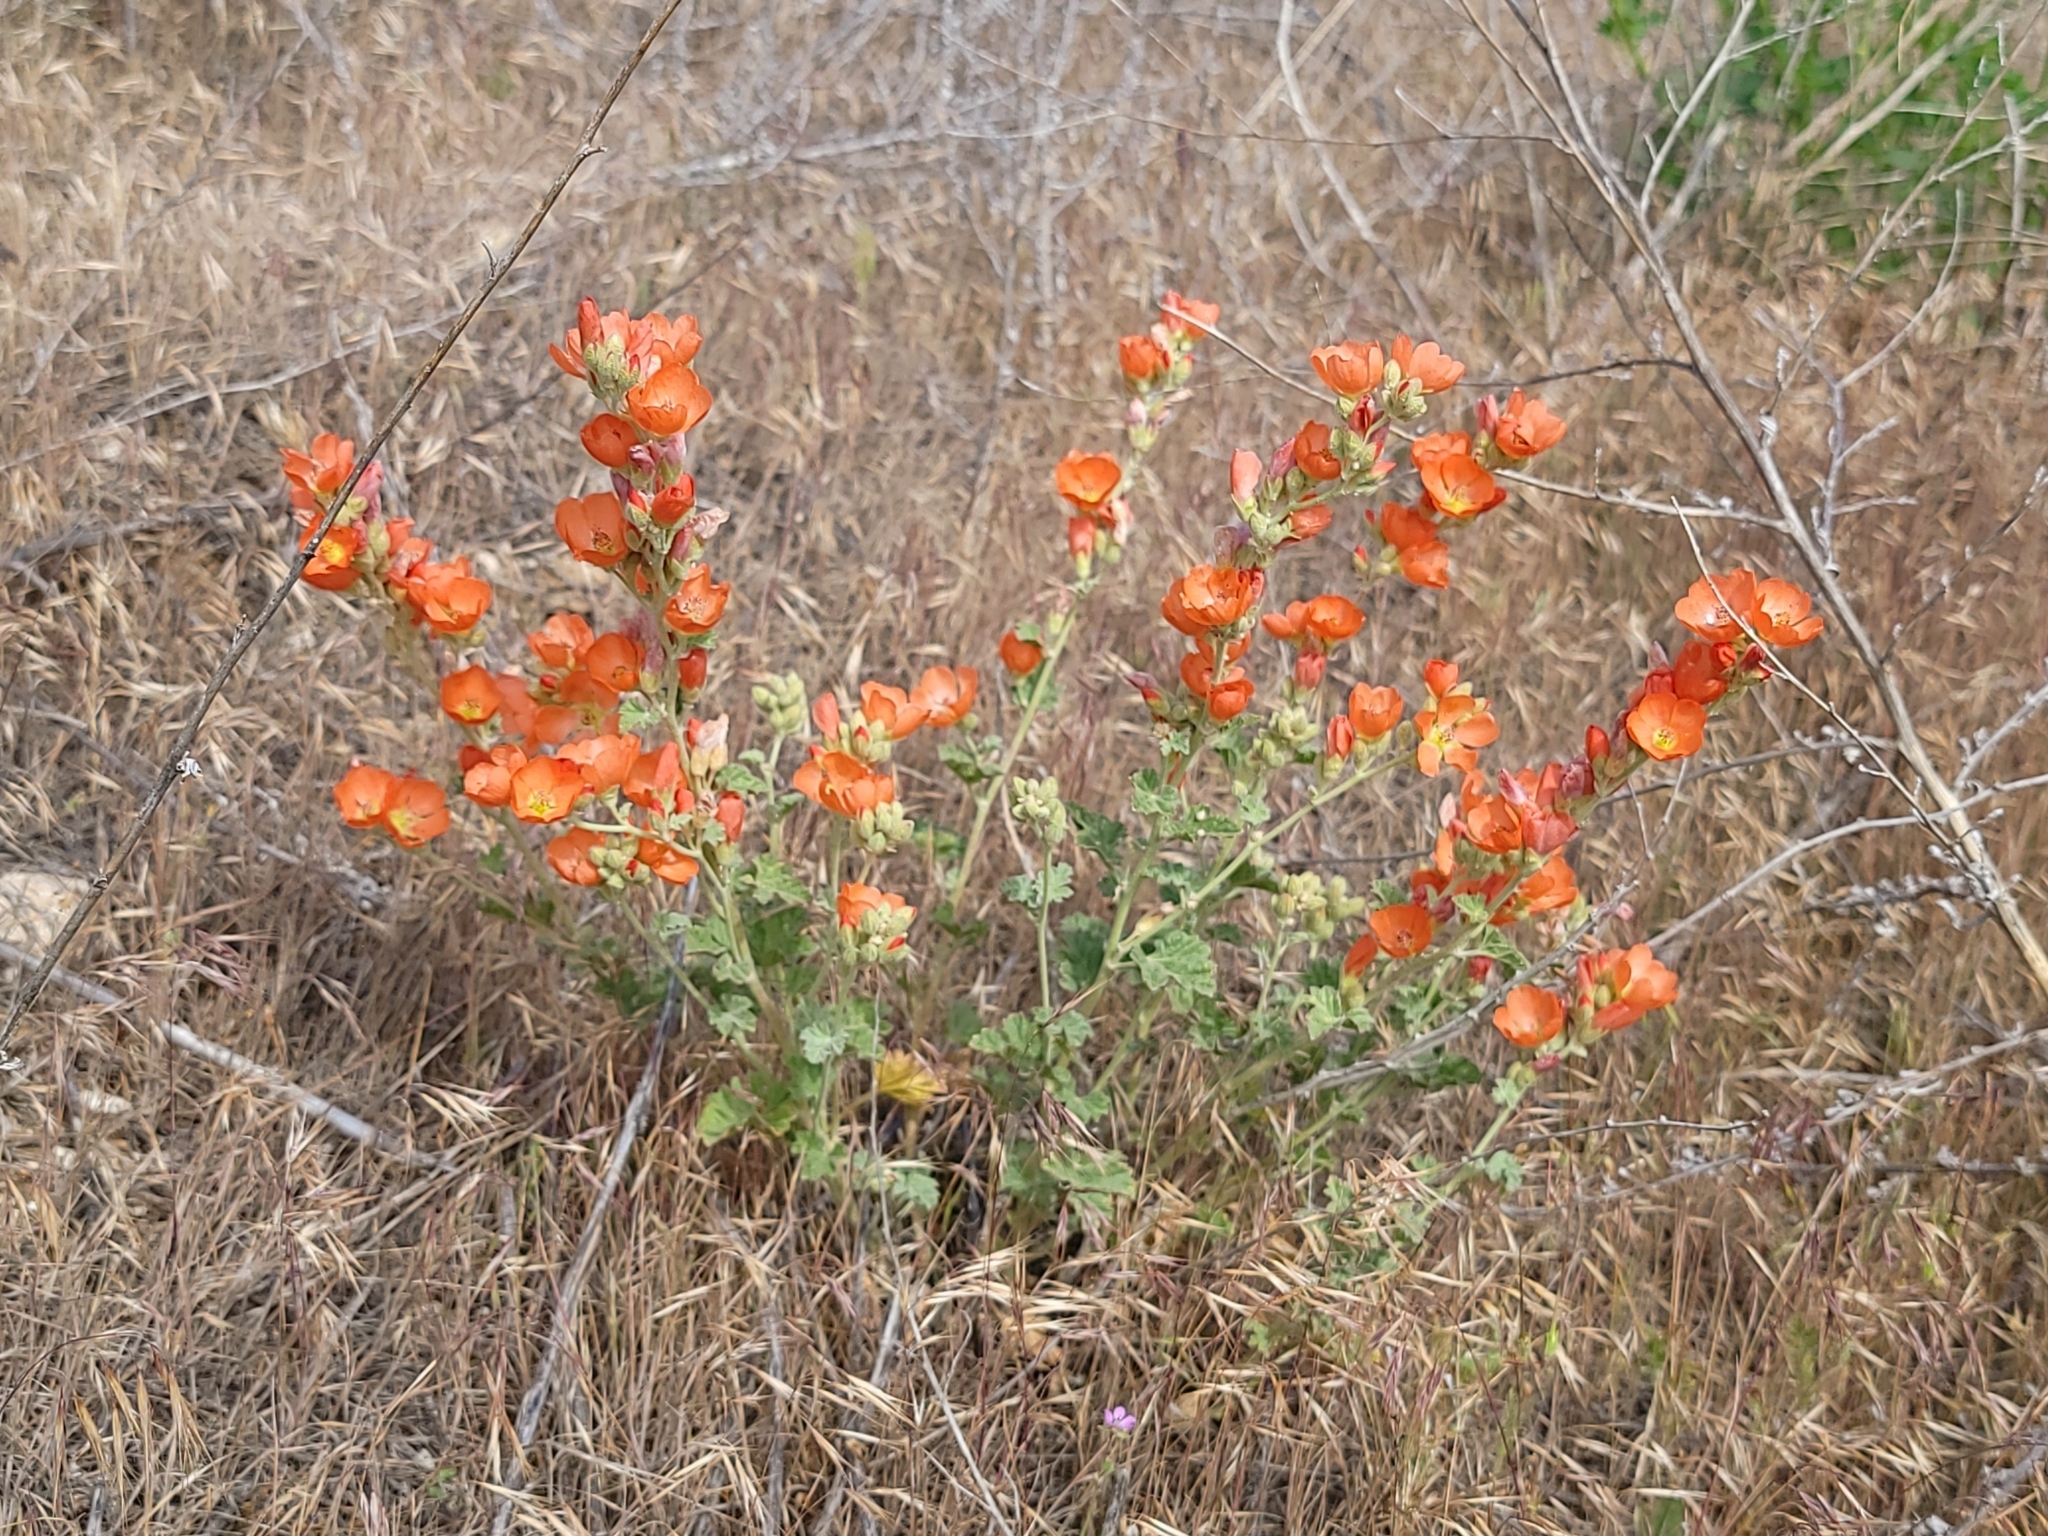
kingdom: Plantae
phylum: Tracheophyta
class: Magnoliopsida
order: Malvales
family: Malvaceae
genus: Sphaeralcea
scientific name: Sphaeralcea munroana
